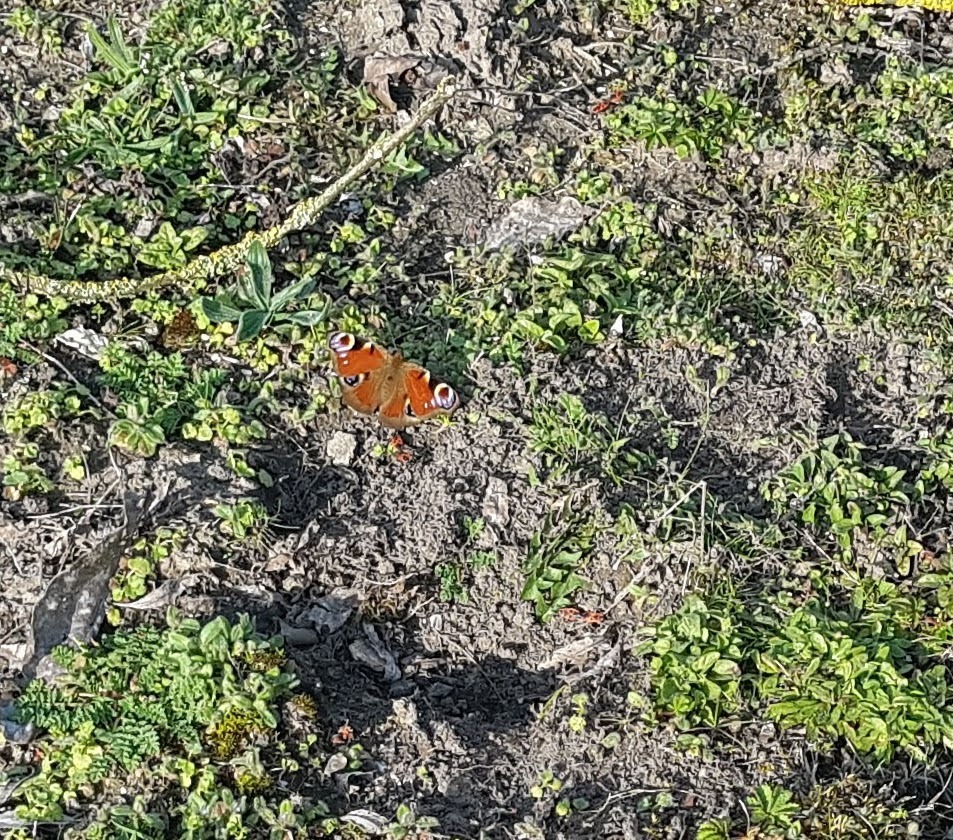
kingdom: Animalia
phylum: Arthropoda
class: Insecta
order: Lepidoptera
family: Nymphalidae
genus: Aglais
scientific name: Aglais io
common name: Peacock
